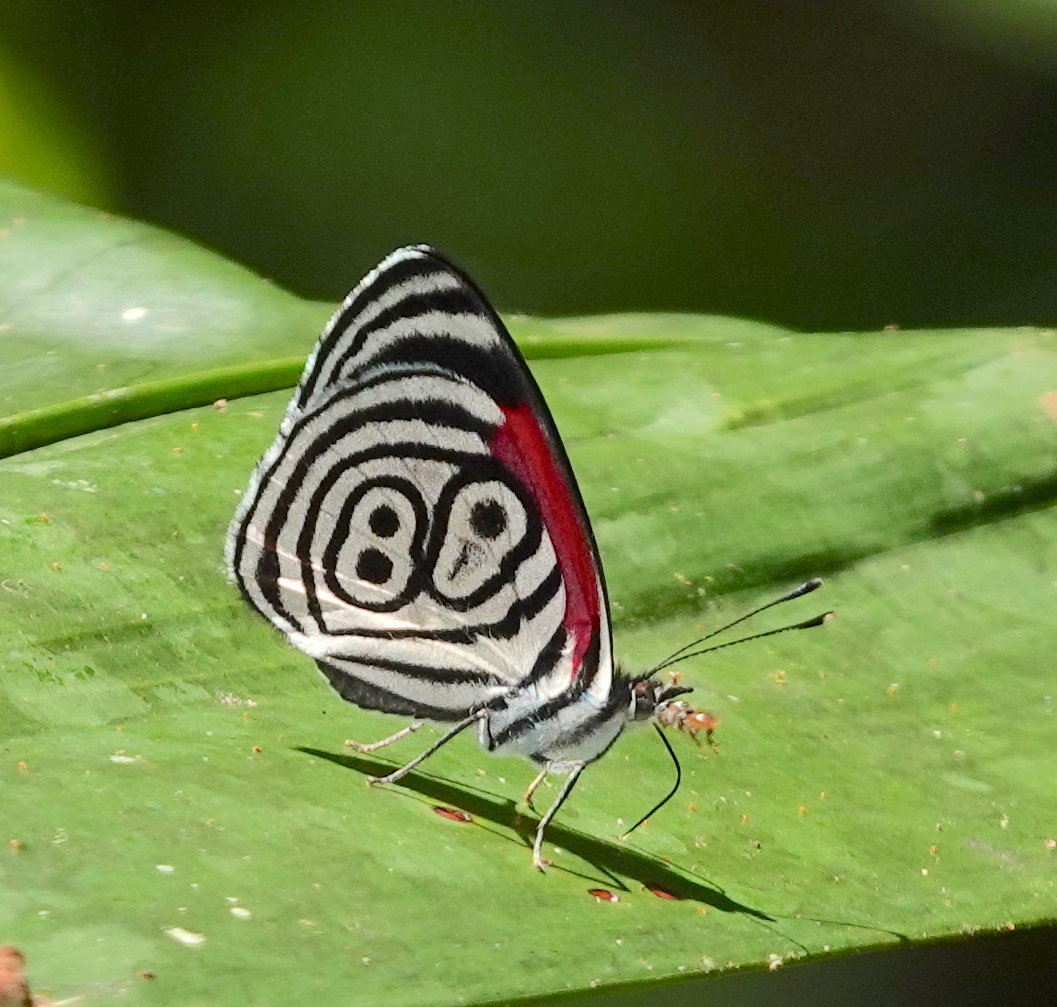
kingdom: Animalia
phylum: Arthropoda
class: Insecta
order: Lepidoptera
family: Nymphalidae
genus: Diaethria
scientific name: Diaethria clymena
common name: Widespread eighty-eight
